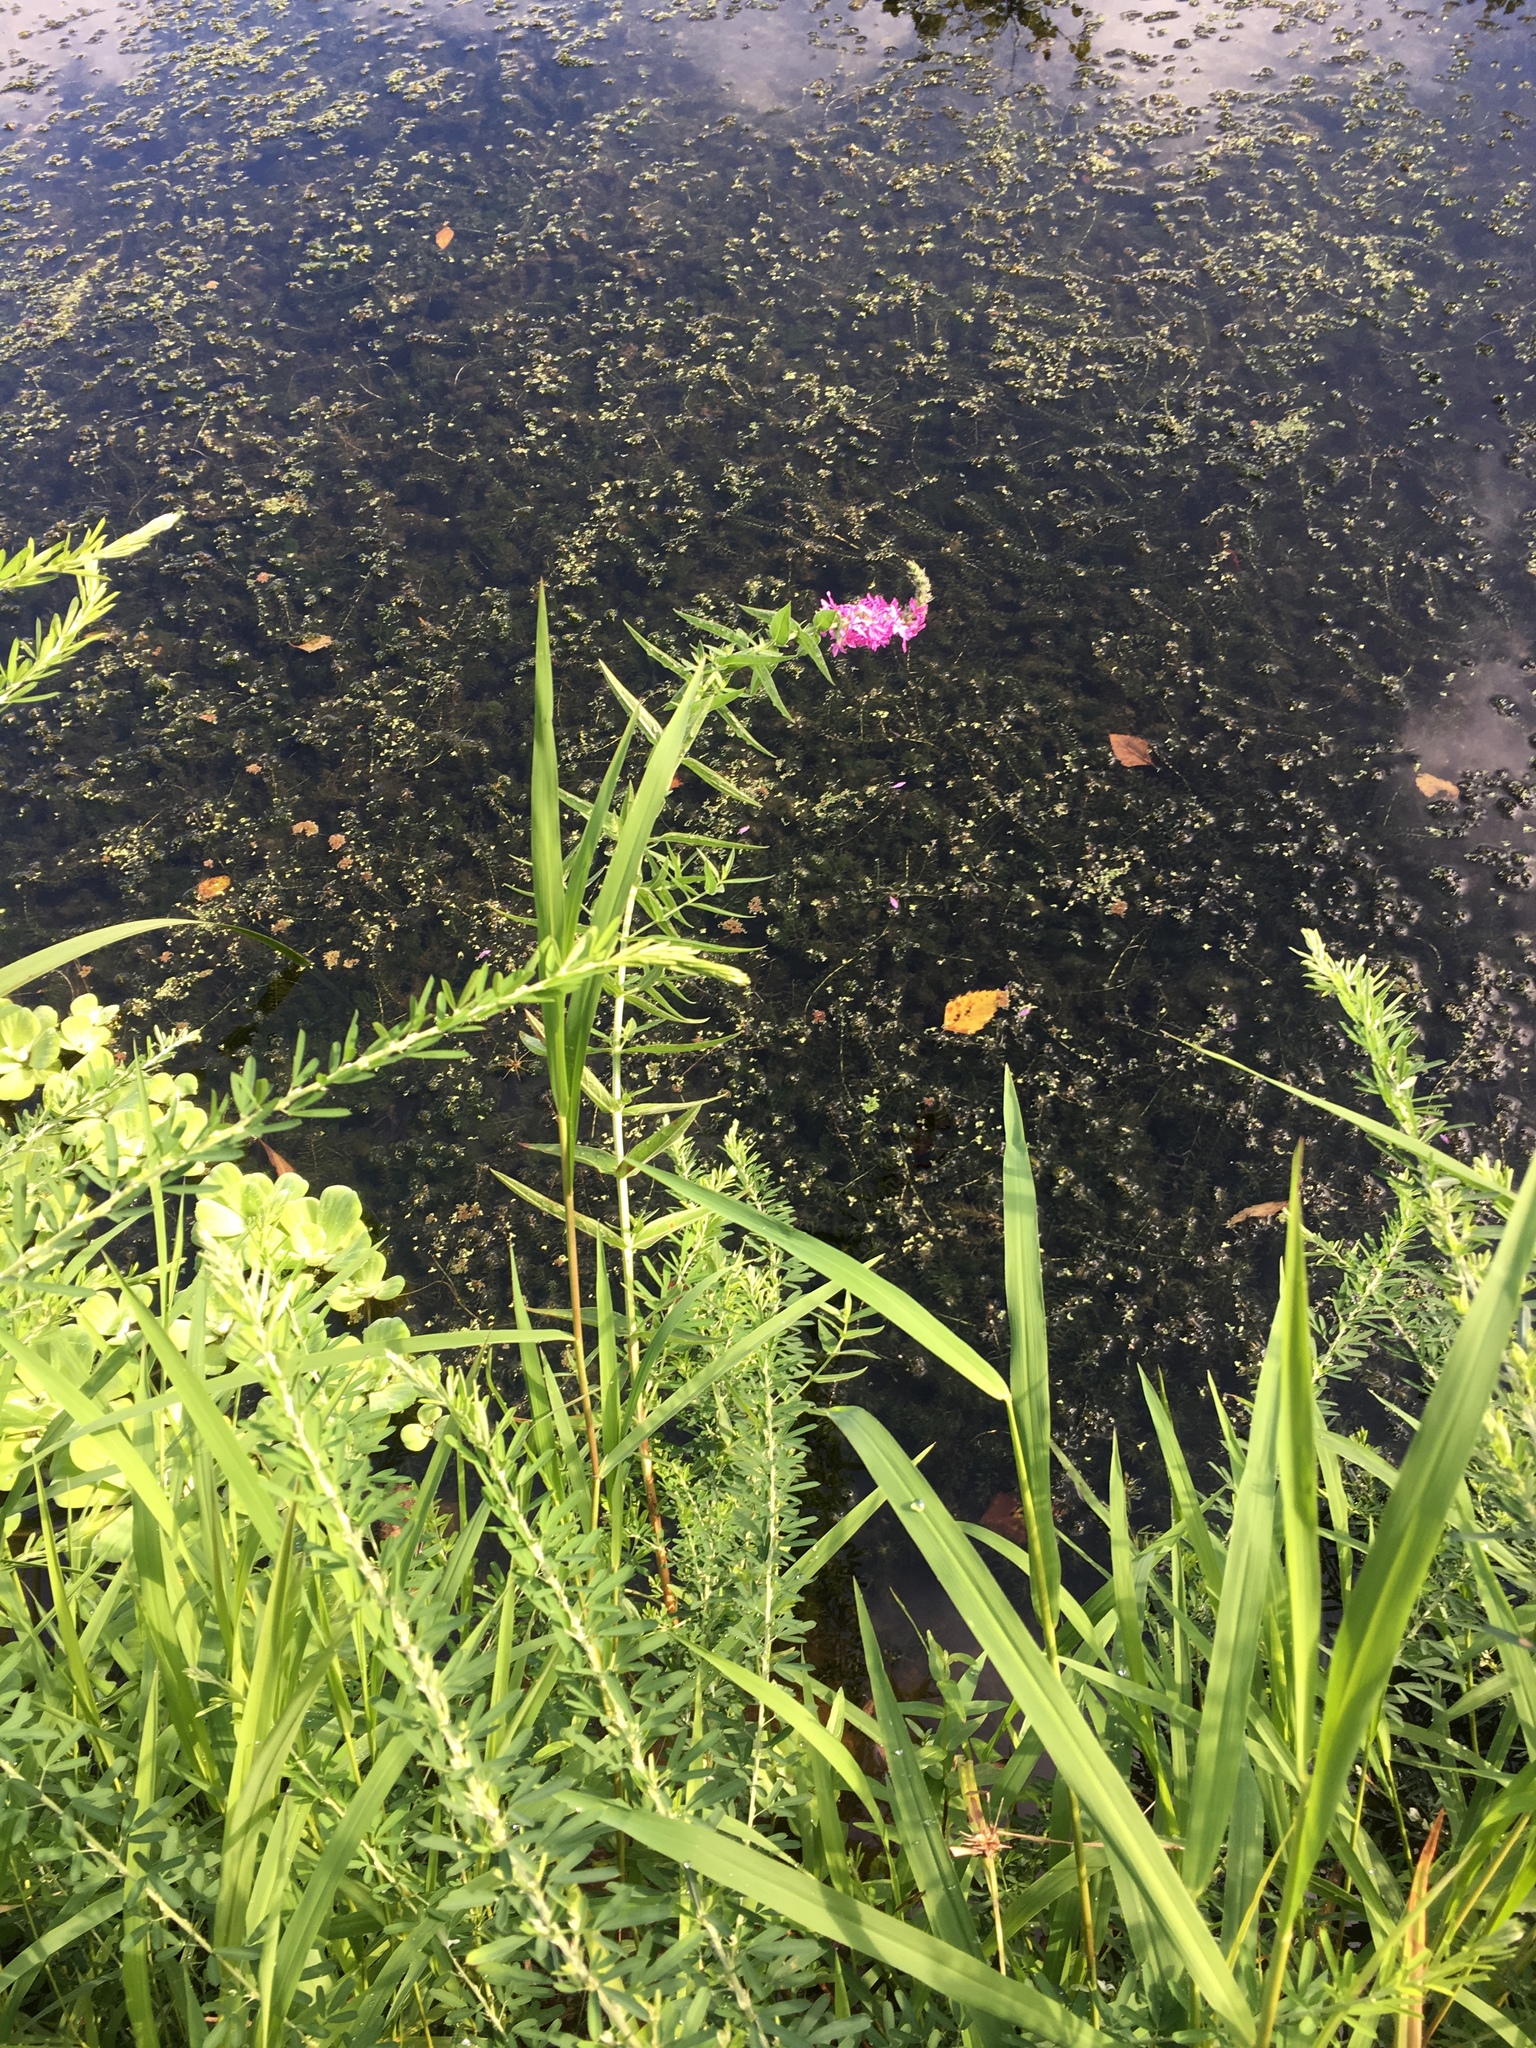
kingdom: Plantae
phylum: Tracheophyta
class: Magnoliopsida
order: Myrtales
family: Lythraceae
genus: Lythrum
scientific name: Lythrum salicaria
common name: Purple loosestrife
